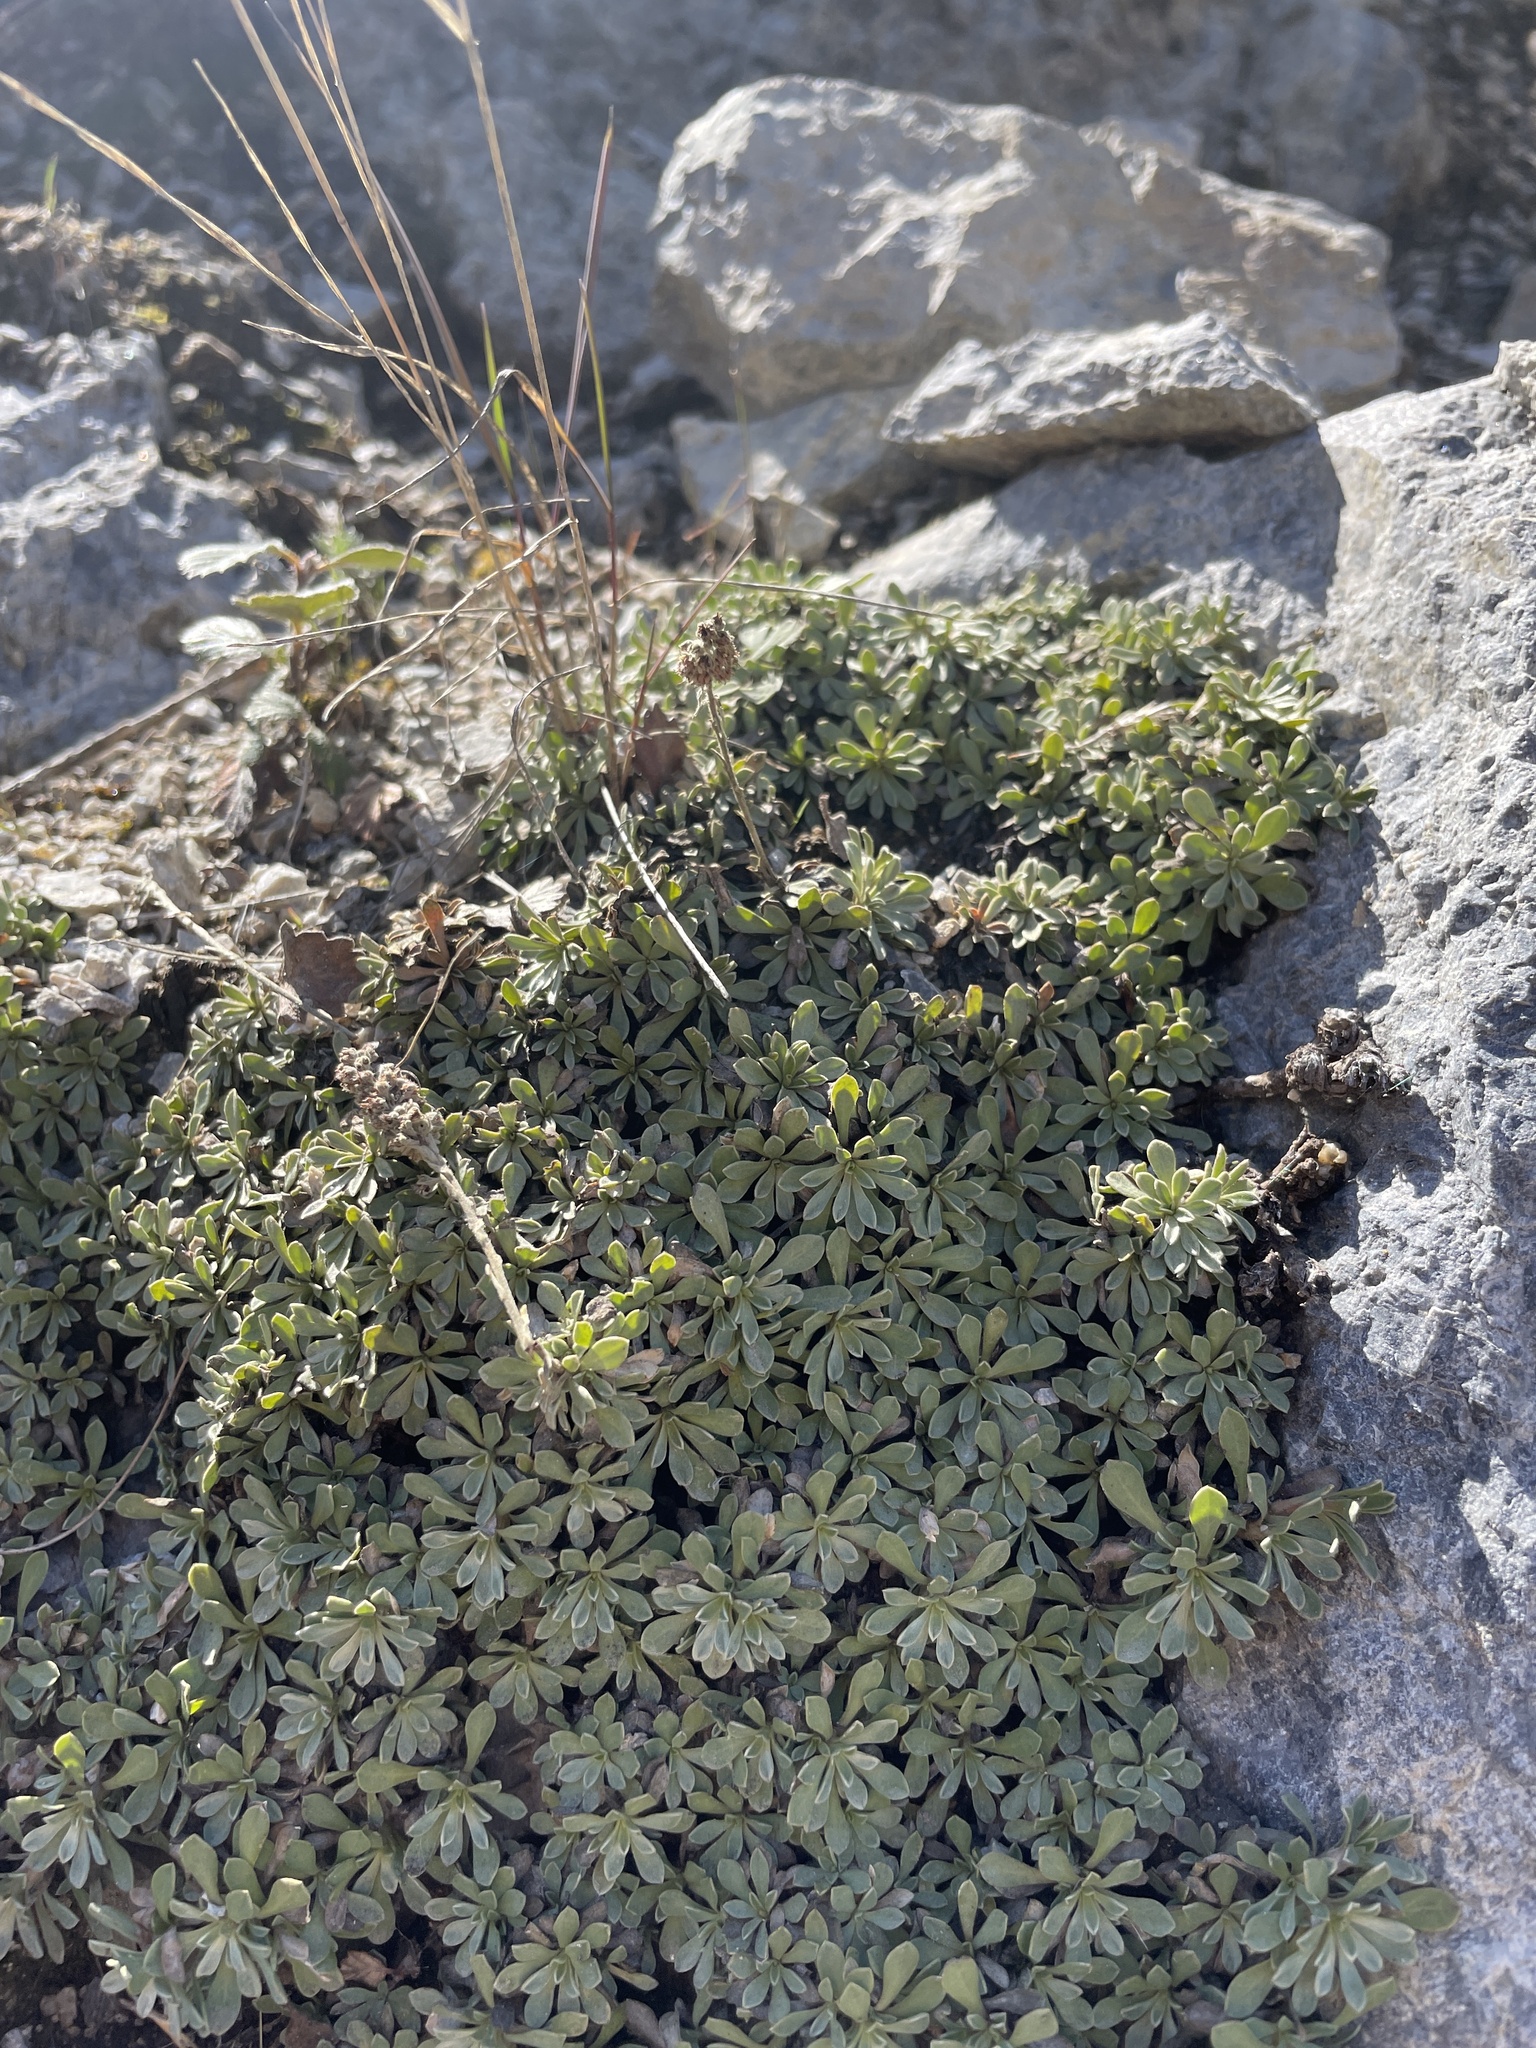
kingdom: Plantae
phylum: Tracheophyta
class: Magnoliopsida
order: Rosales
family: Rosaceae
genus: Petrophytum
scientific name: Petrophytum caespitosum
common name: Mat rockspirea
